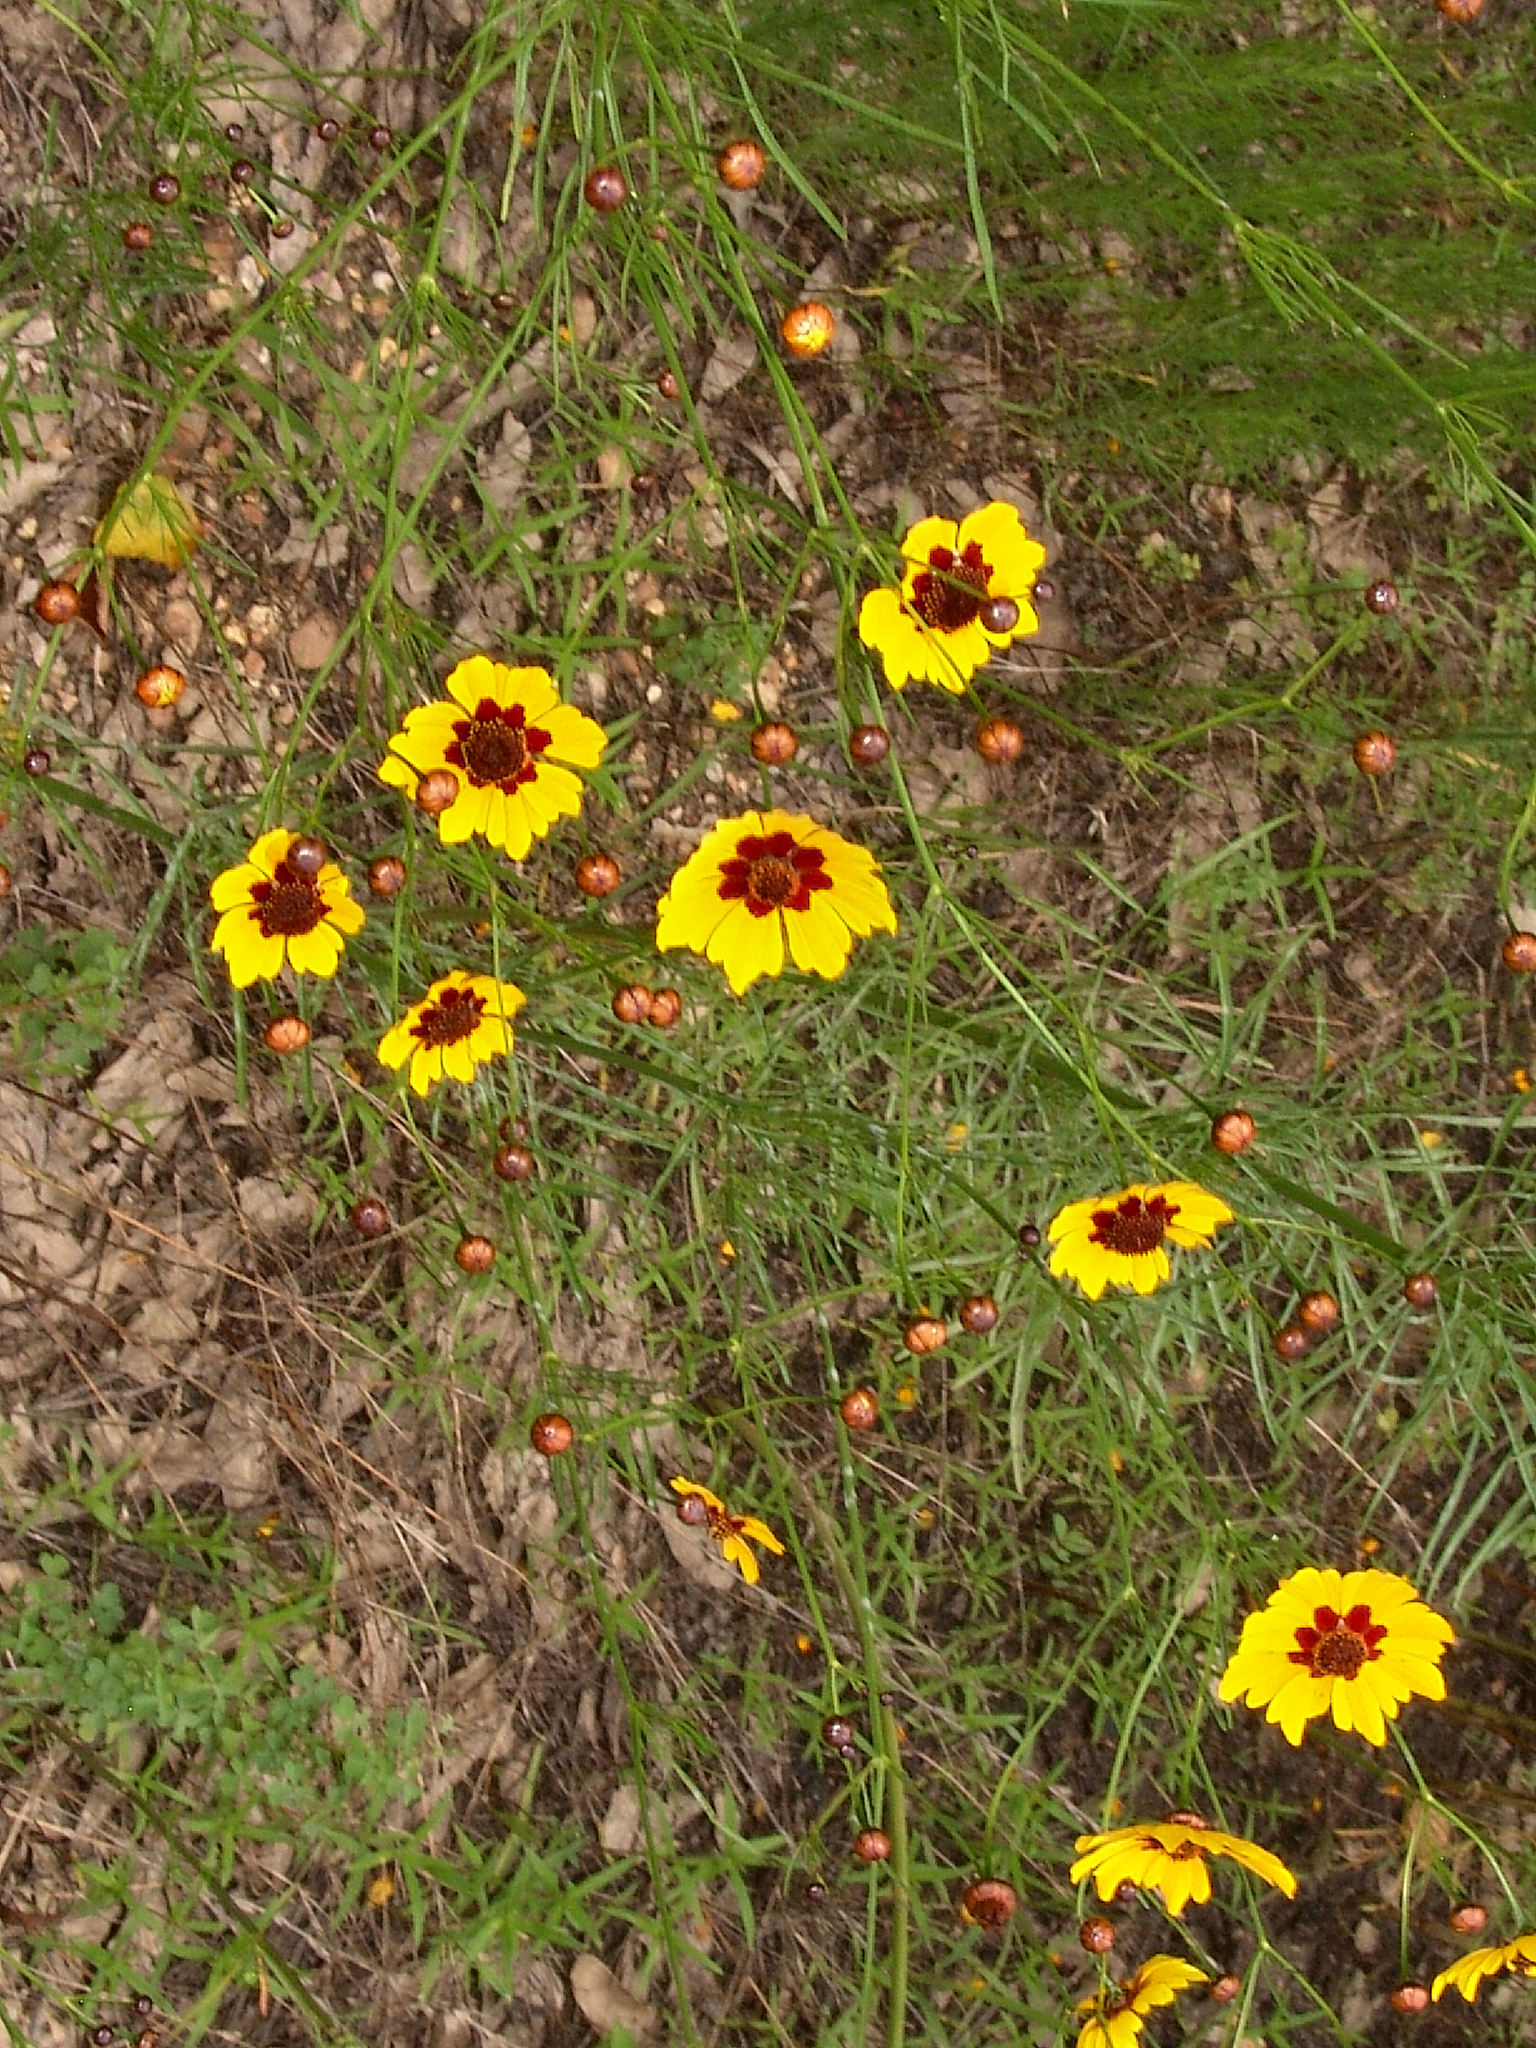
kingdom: Plantae
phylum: Tracheophyta
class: Magnoliopsida
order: Asterales
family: Asteraceae
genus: Coreopsis
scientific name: Coreopsis tinctoria
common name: Garden tickseed
